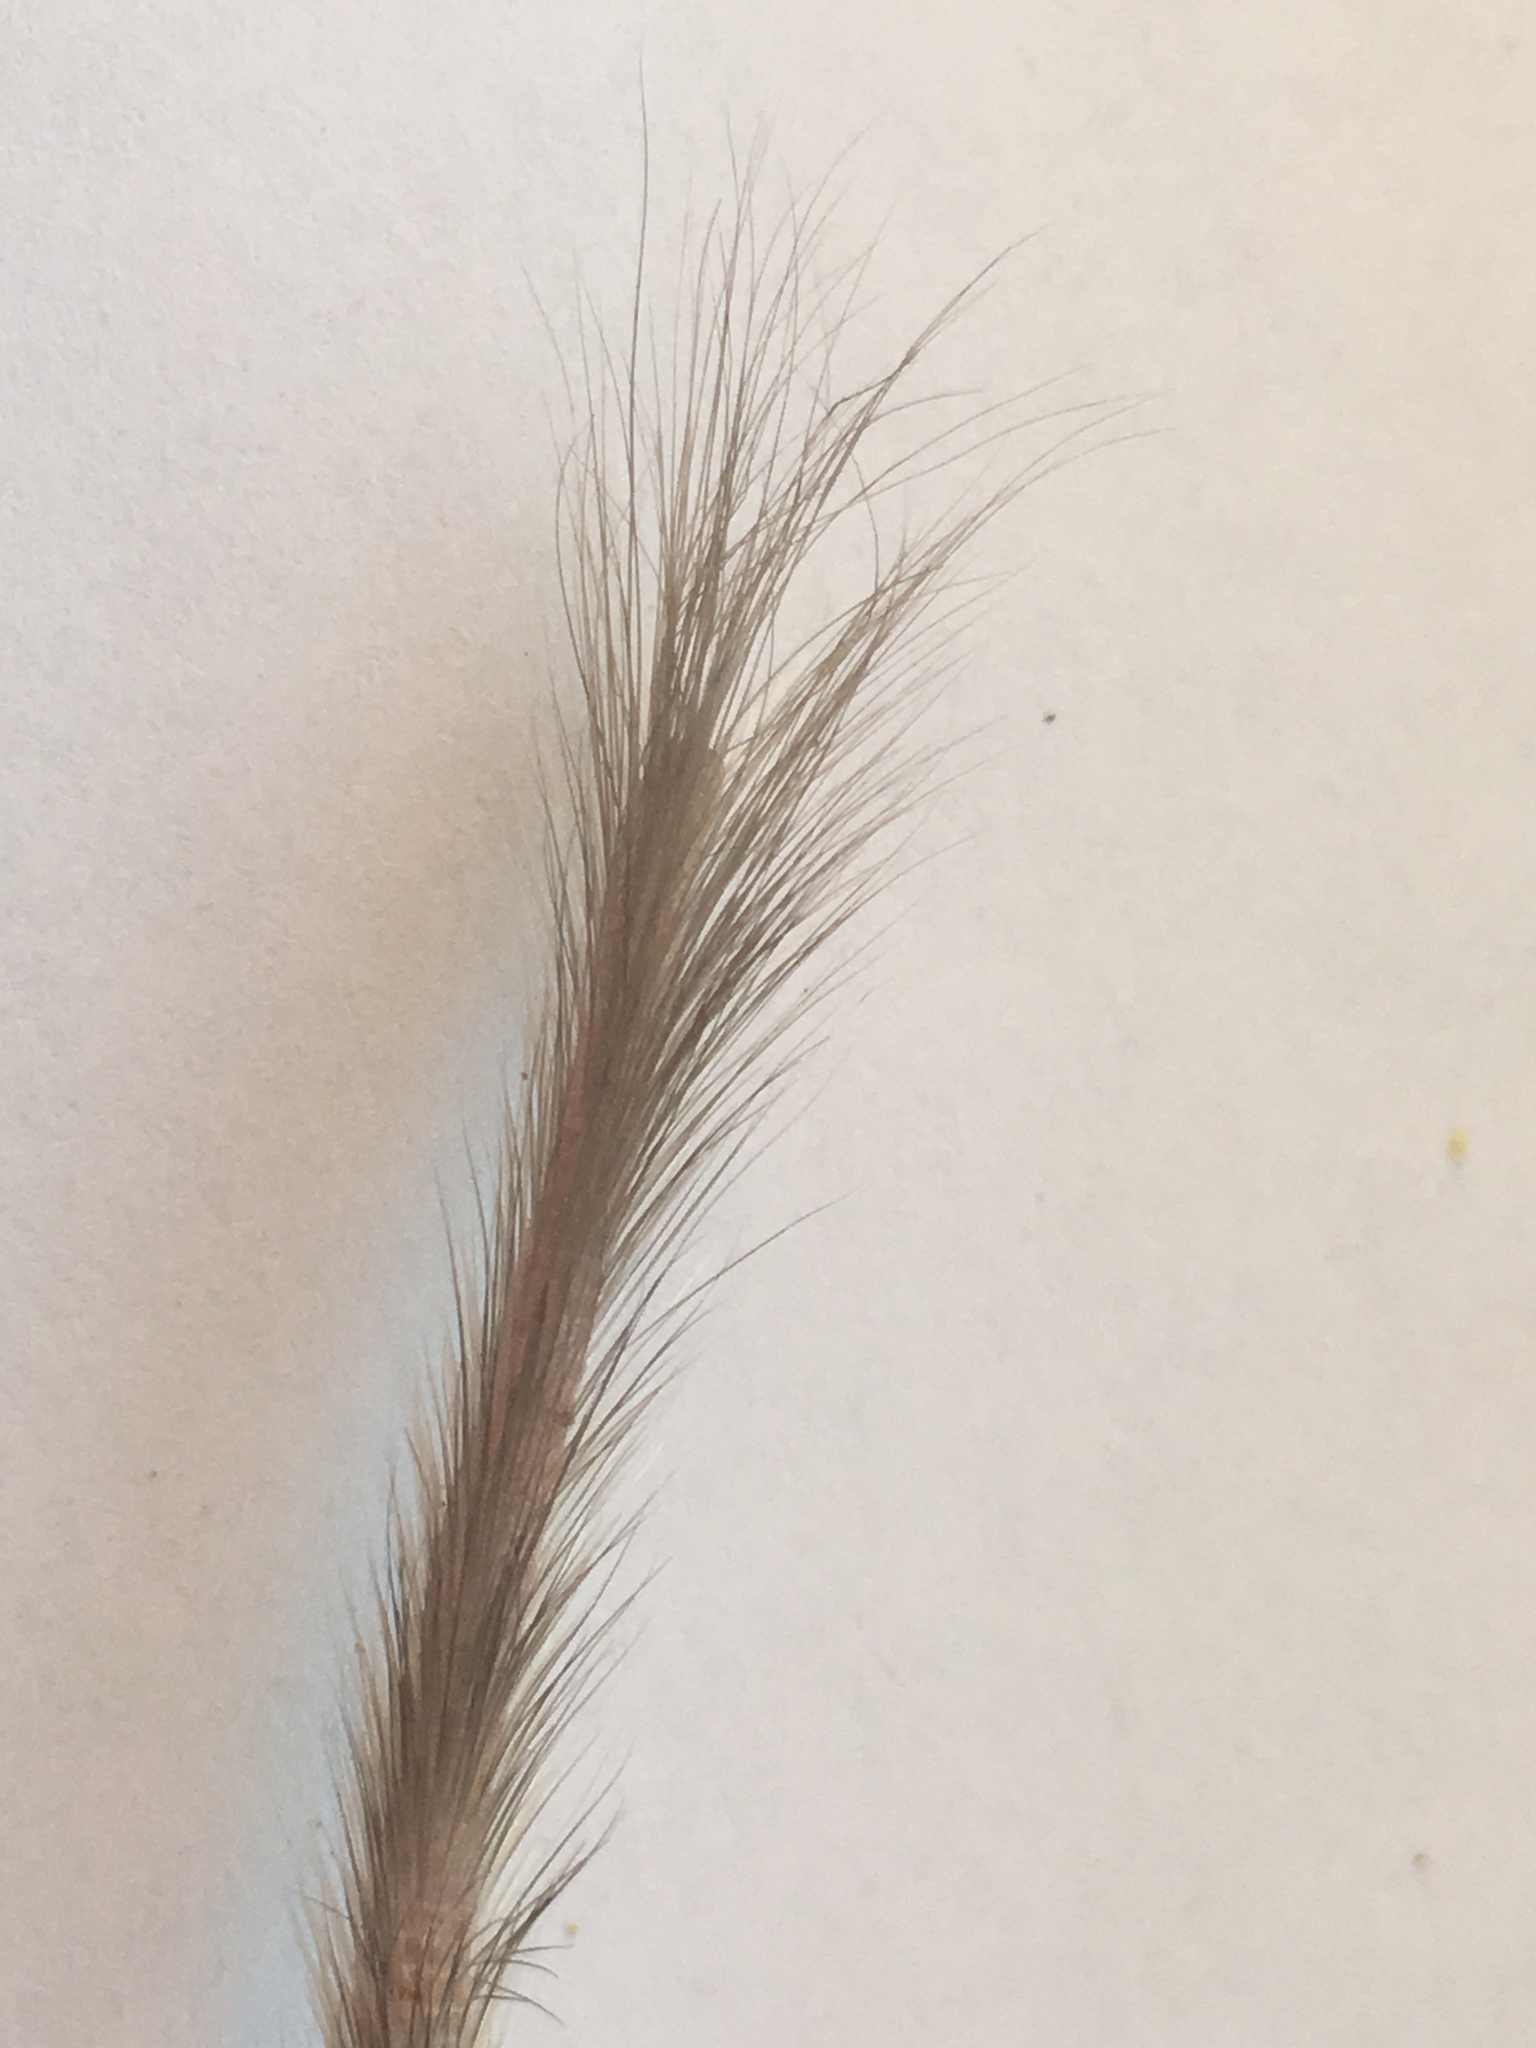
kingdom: Animalia
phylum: Chordata
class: Mammalia
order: Rodentia
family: Heteromyidae
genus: Chaetodipus
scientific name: Chaetodipus fallax
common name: San diego pocket mouse
